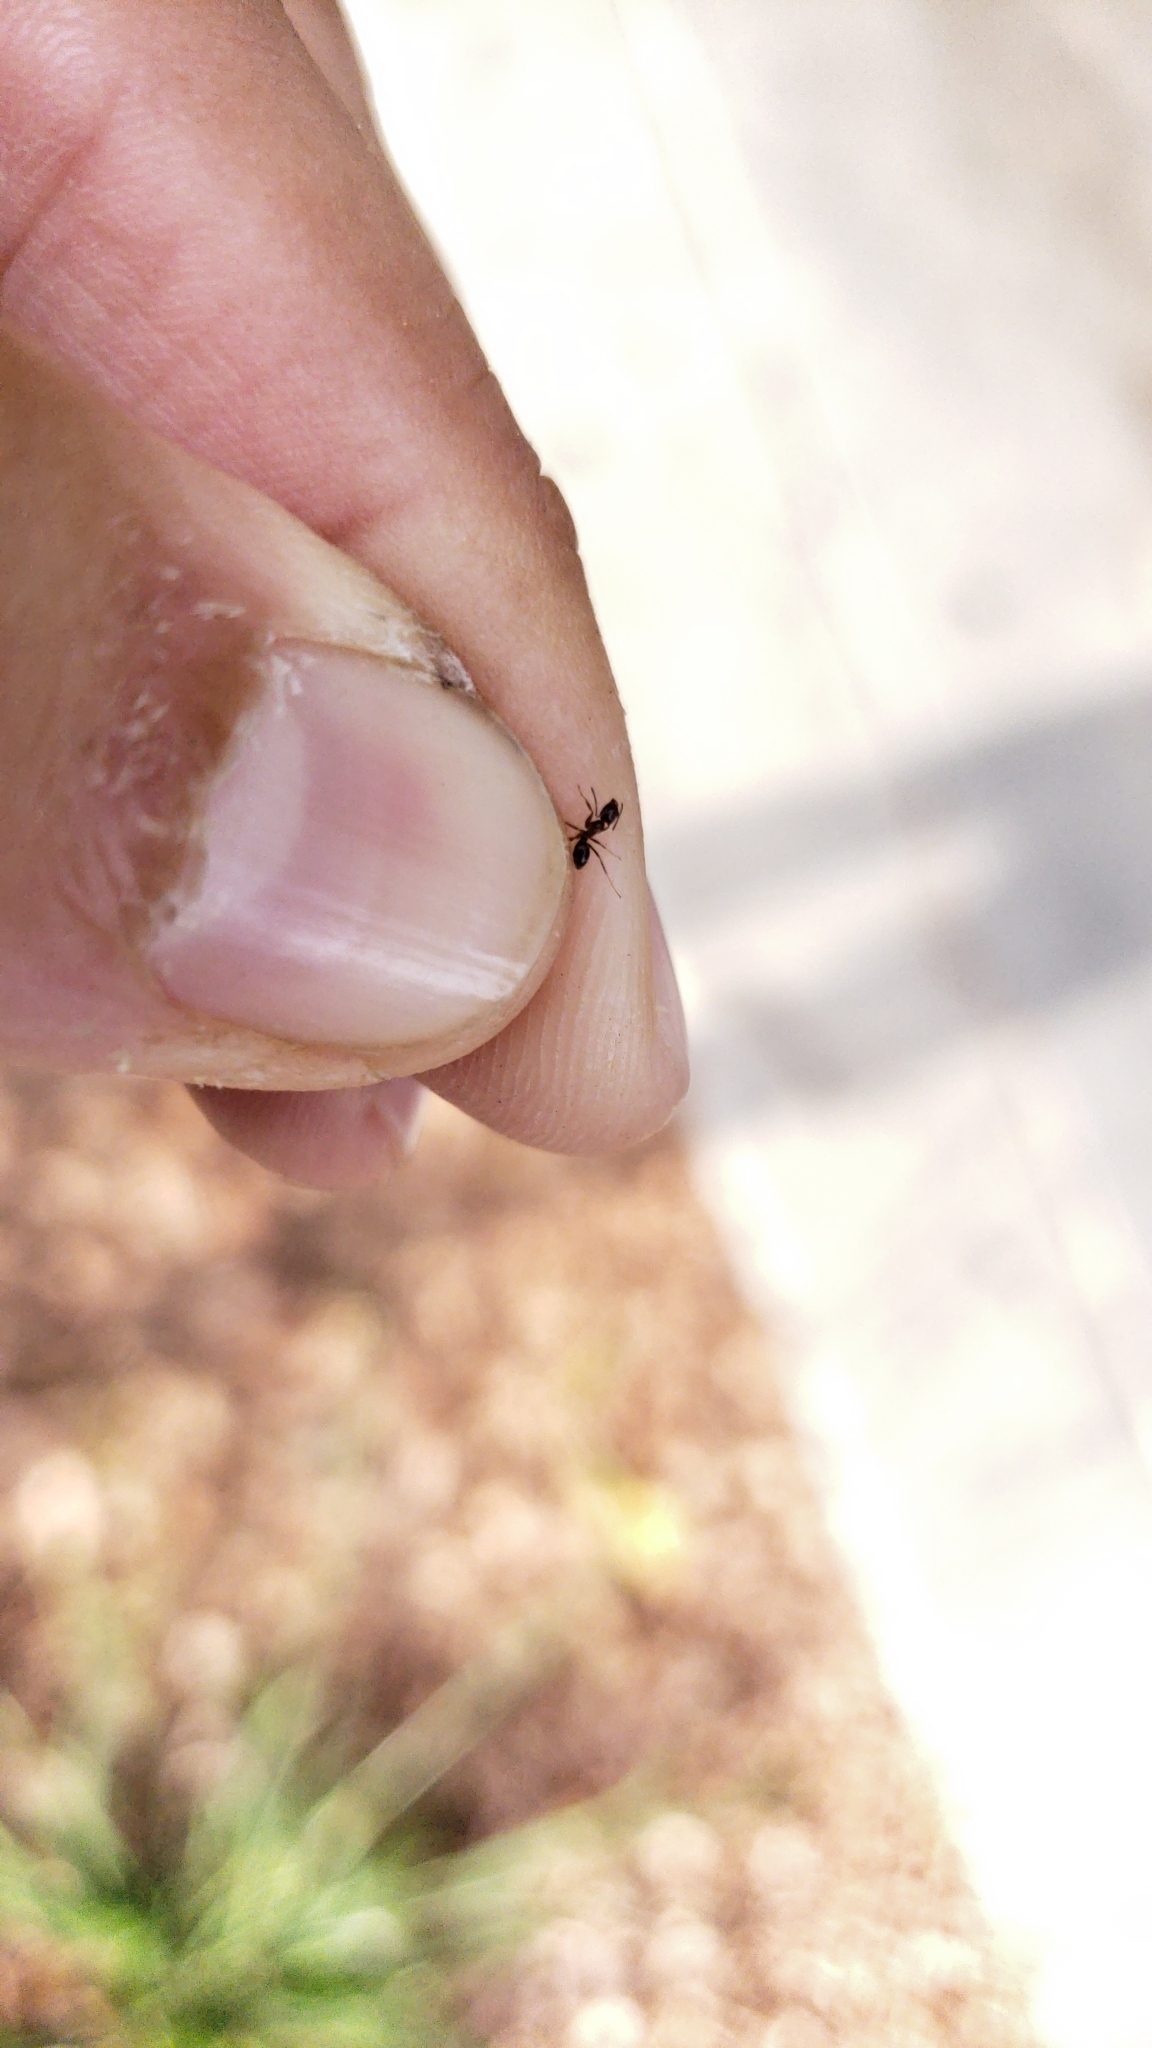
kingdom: Animalia
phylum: Arthropoda
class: Insecta
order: Hymenoptera
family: Formicidae
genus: Linepithema
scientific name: Linepithema humile
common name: Argentine ant
